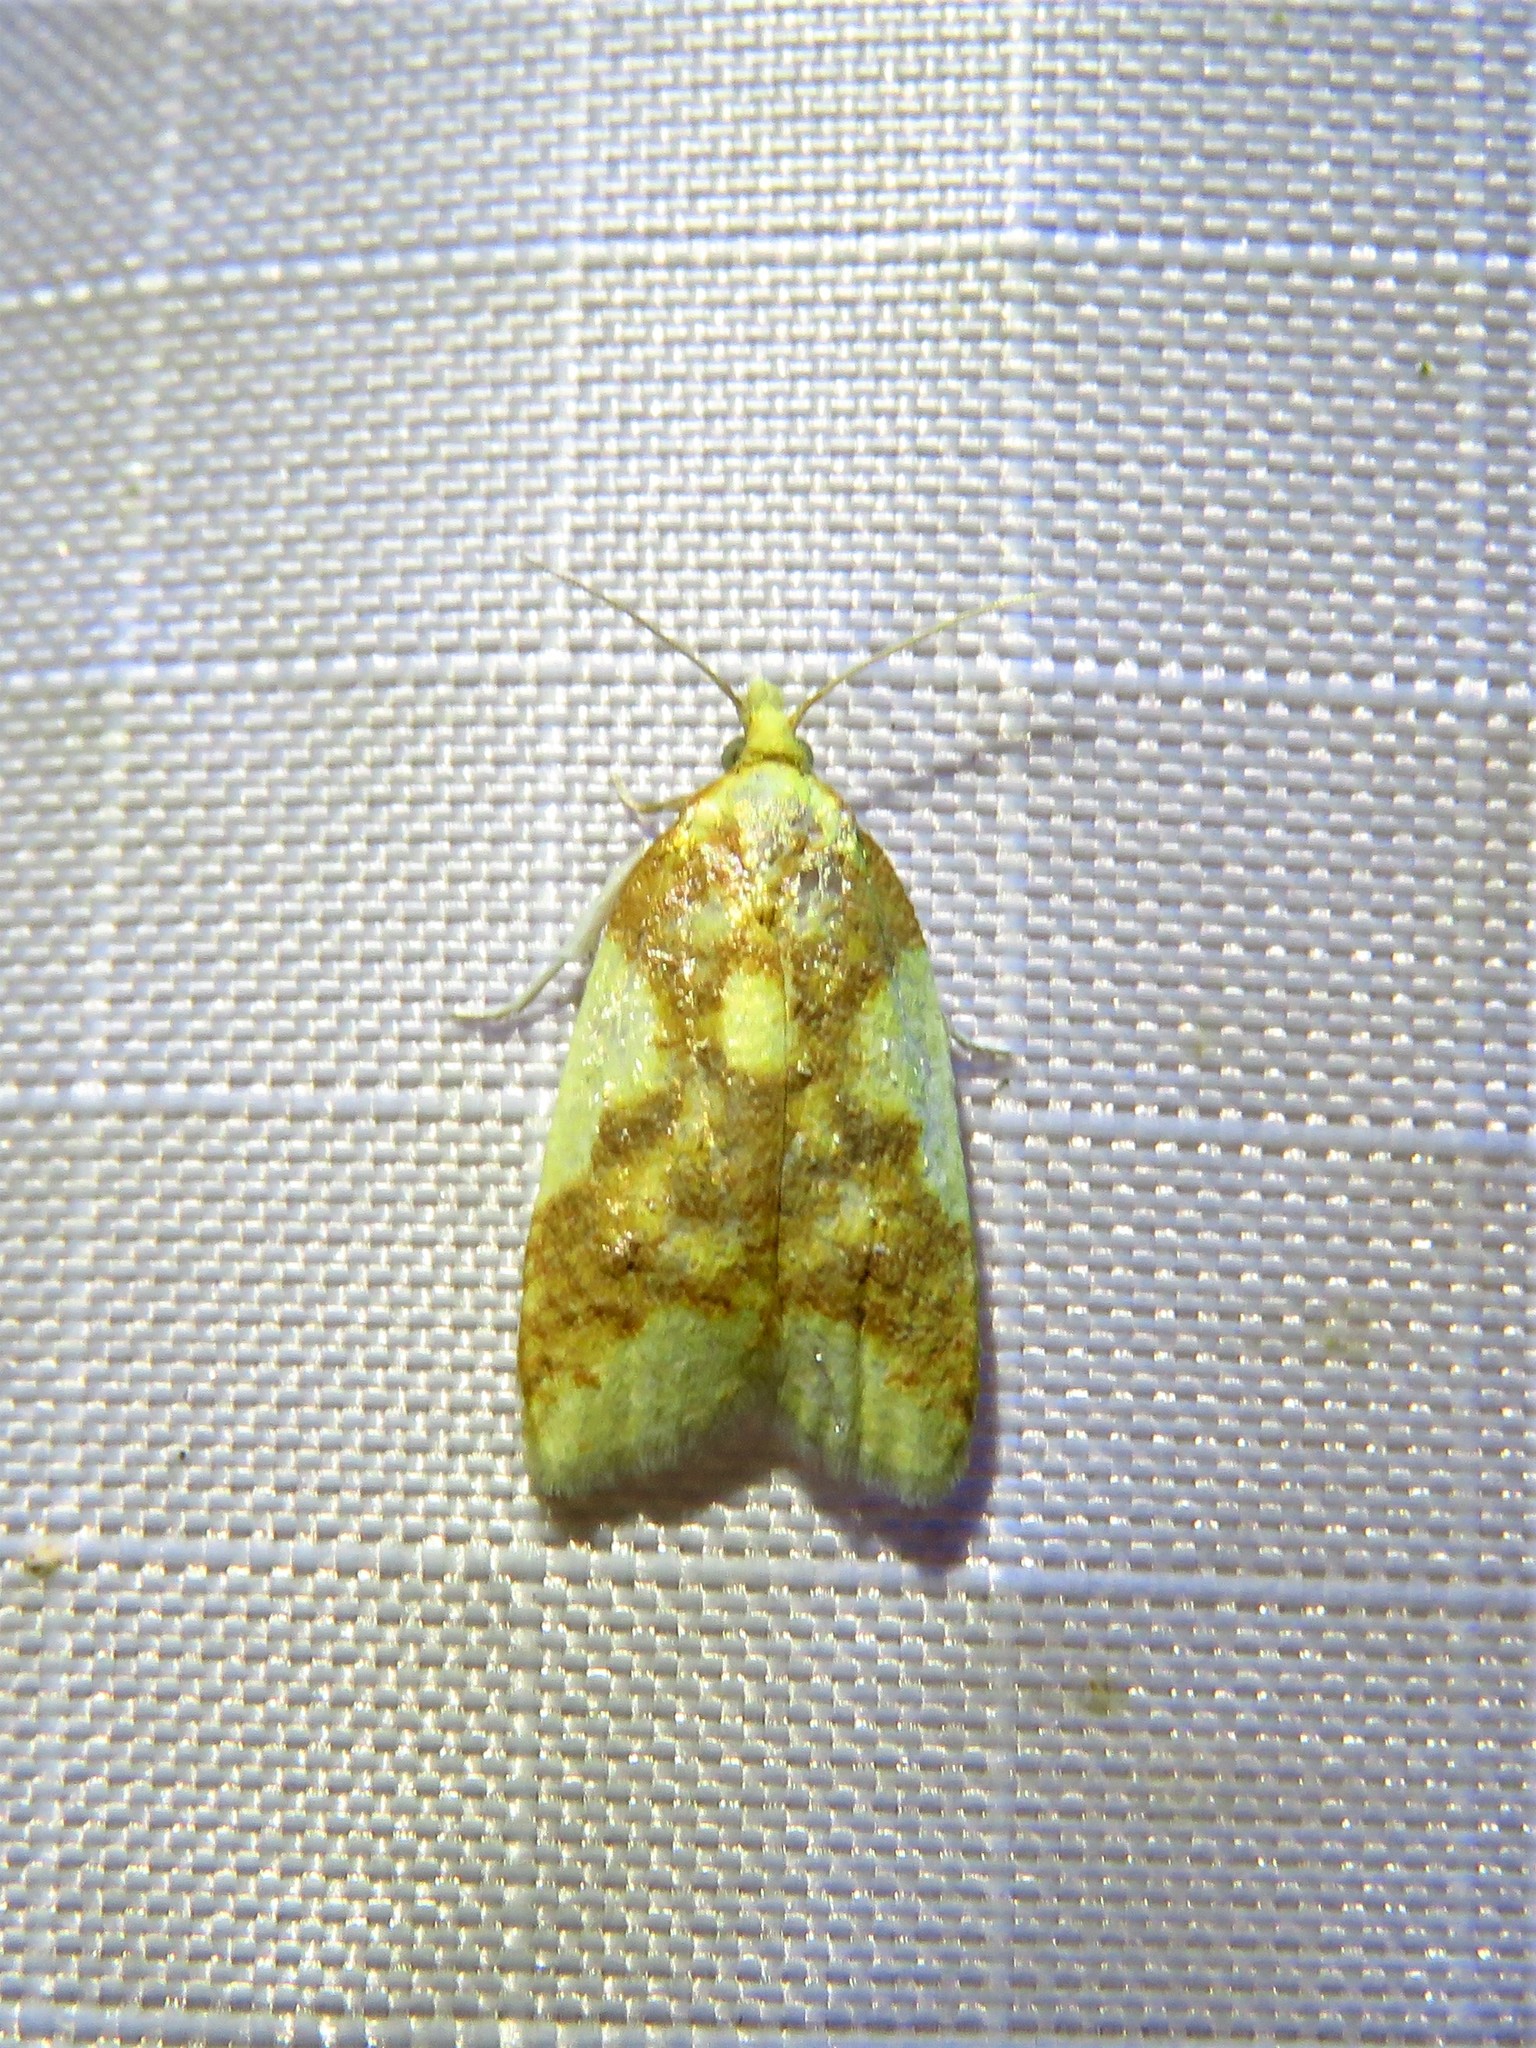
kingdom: Animalia
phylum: Arthropoda
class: Insecta
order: Lepidoptera
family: Tortricidae
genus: Sparganothis
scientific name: Sparganothis pulcherrimana
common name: Beautiful sparganothis
